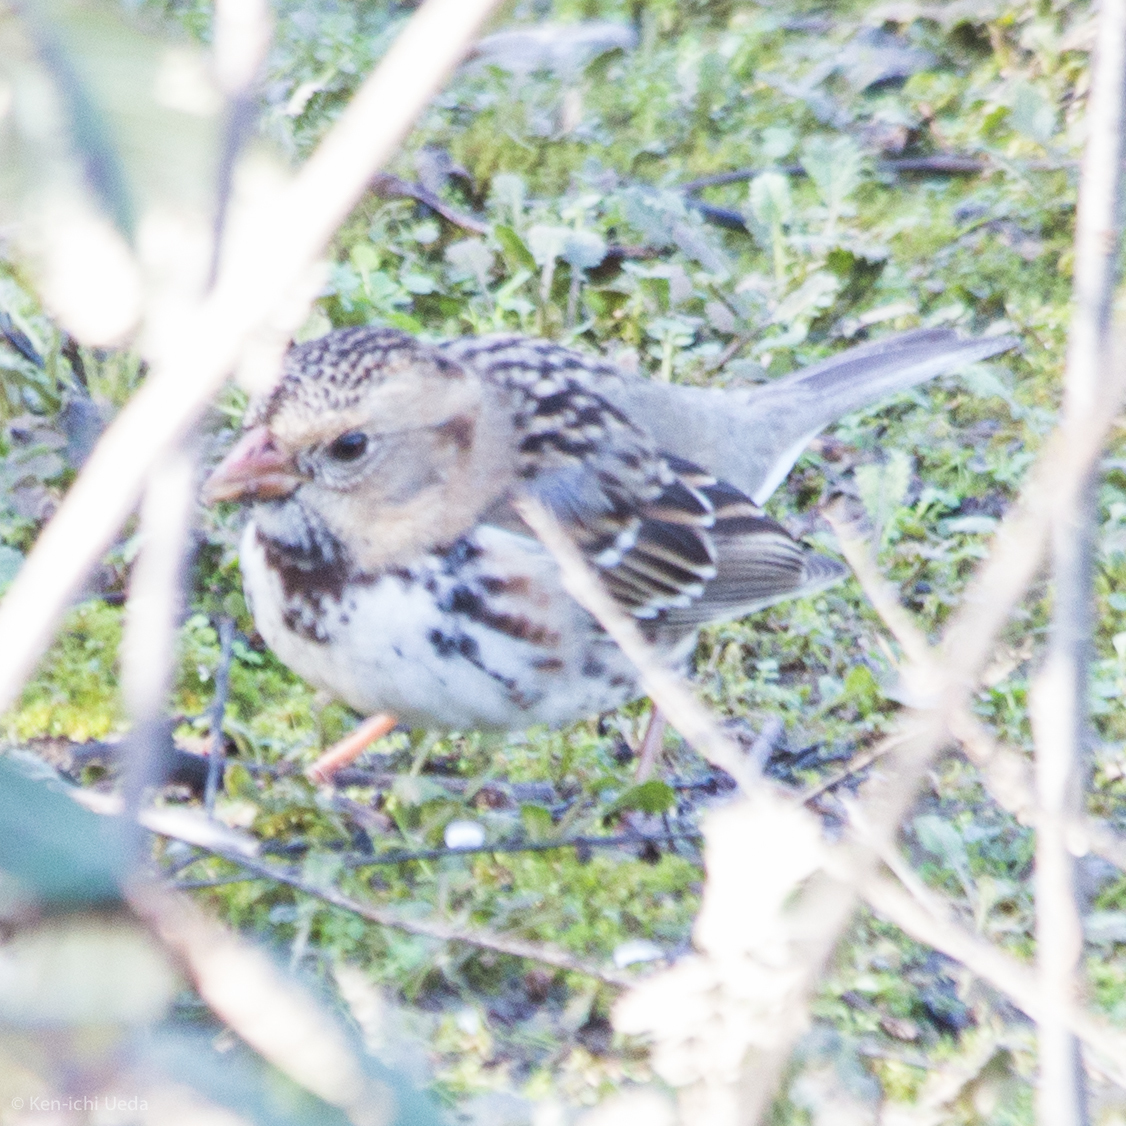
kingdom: Animalia
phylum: Chordata
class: Aves
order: Passeriformes
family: Passerellidae
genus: Zonotrichia
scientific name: Zonotrichia querula
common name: Harris's sparrow
